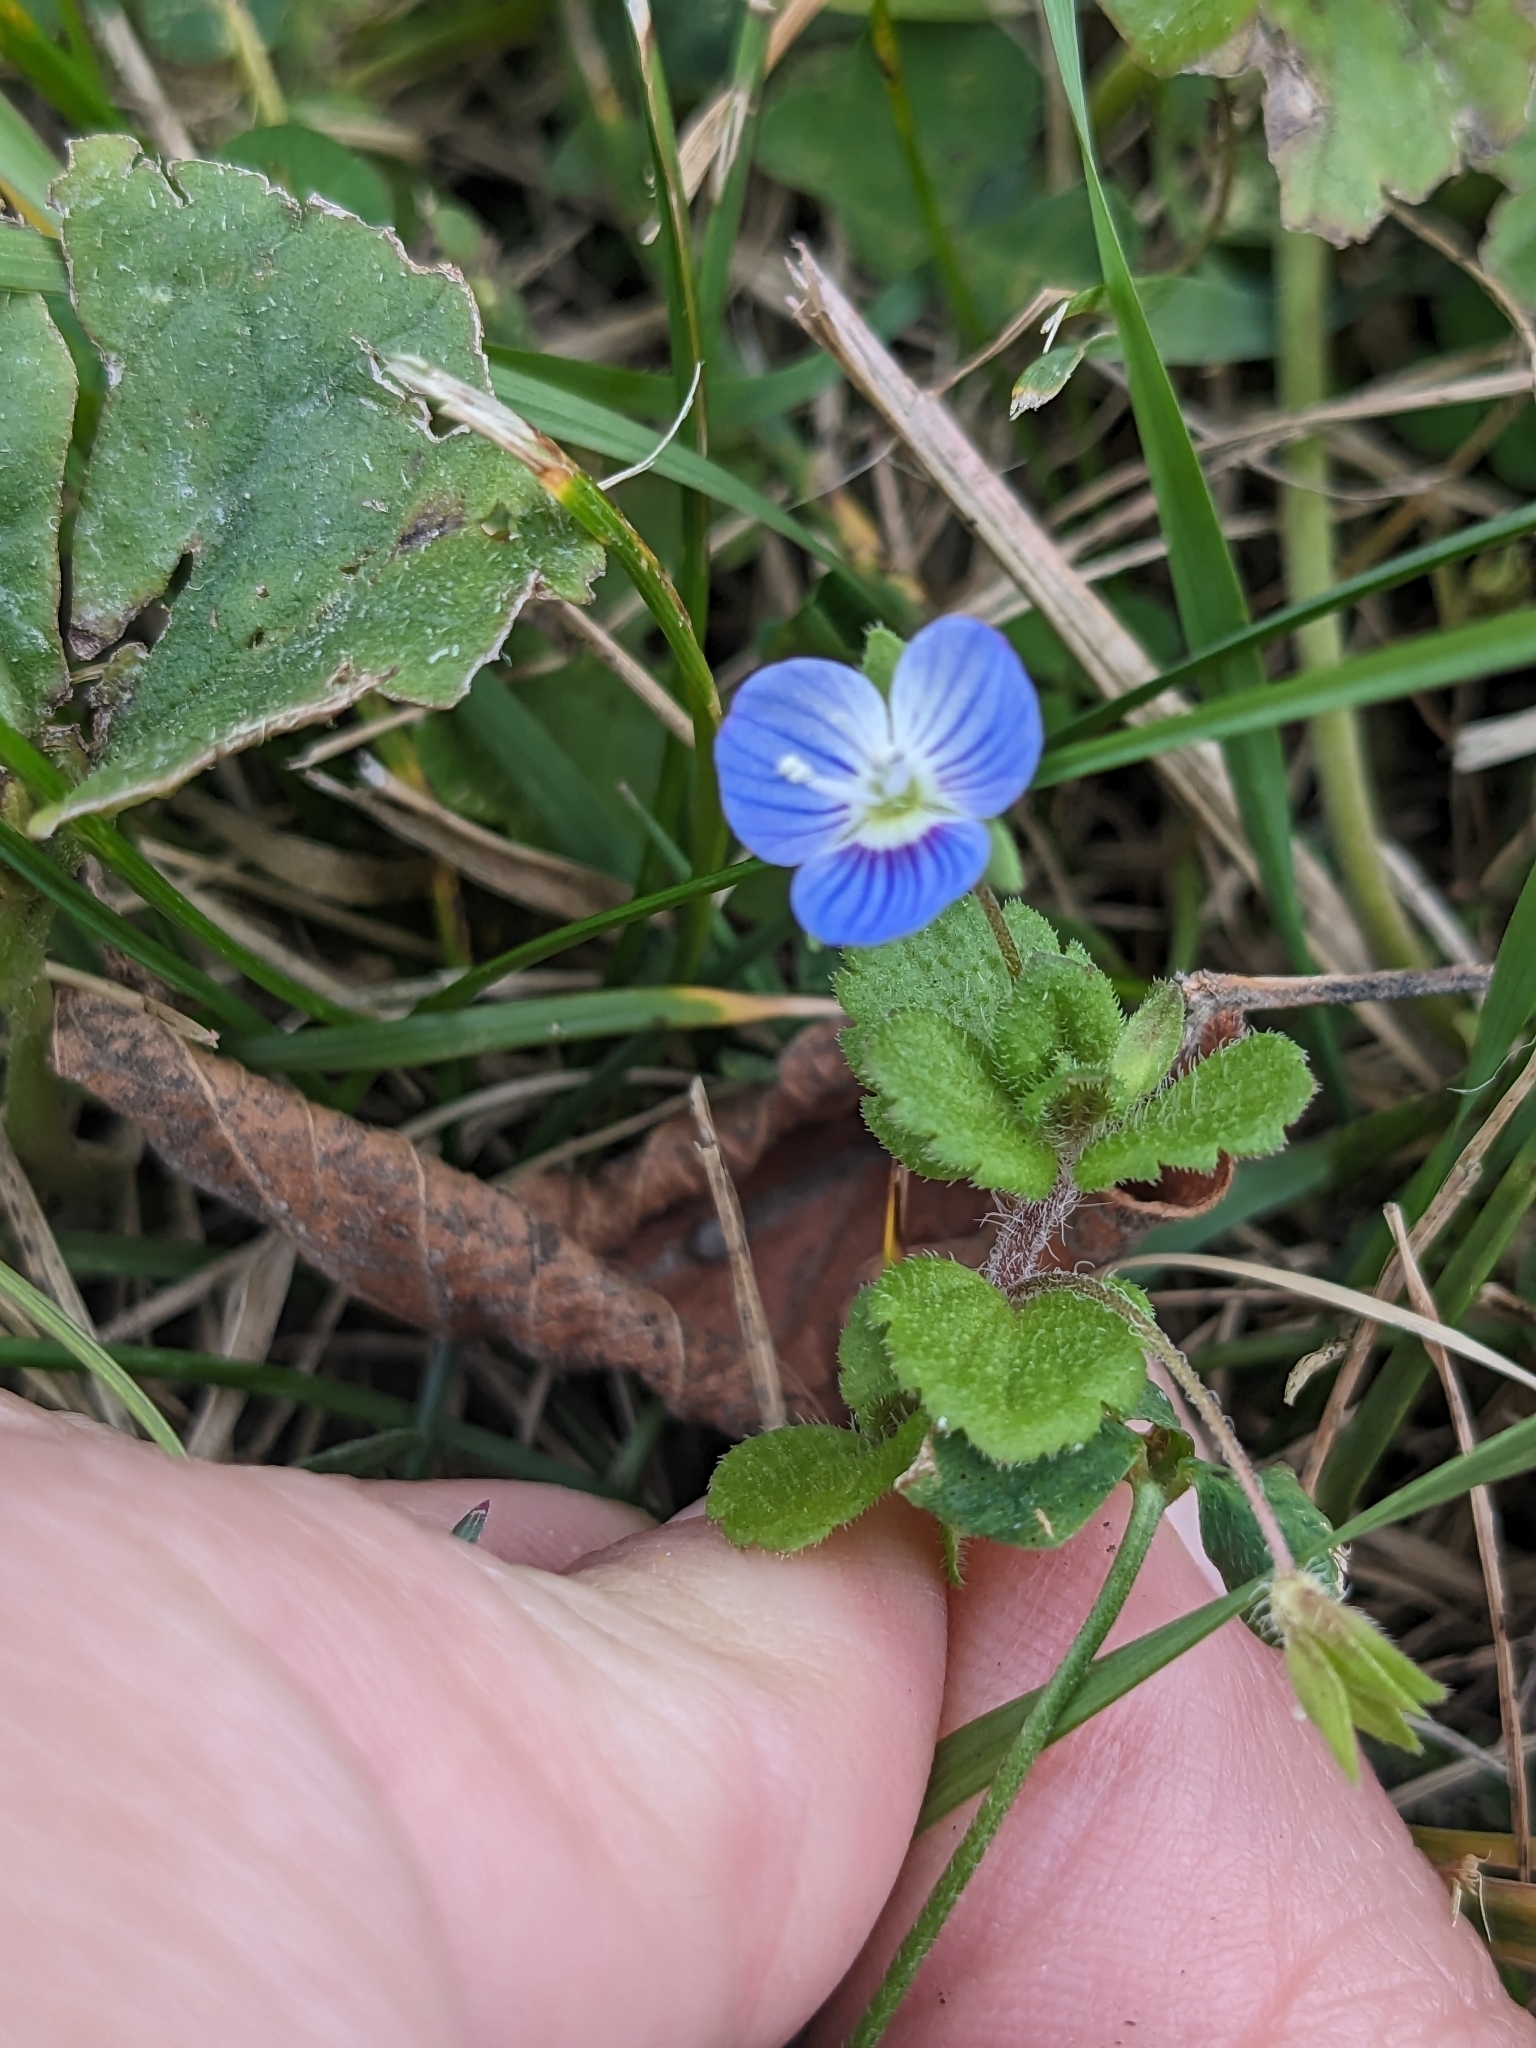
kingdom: Plantae
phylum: Tracheophyta
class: Magnoliopsida
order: Lamiales
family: Plantaginaceae
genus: Veronica
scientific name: Veronica persica
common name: Common field-speedwell
